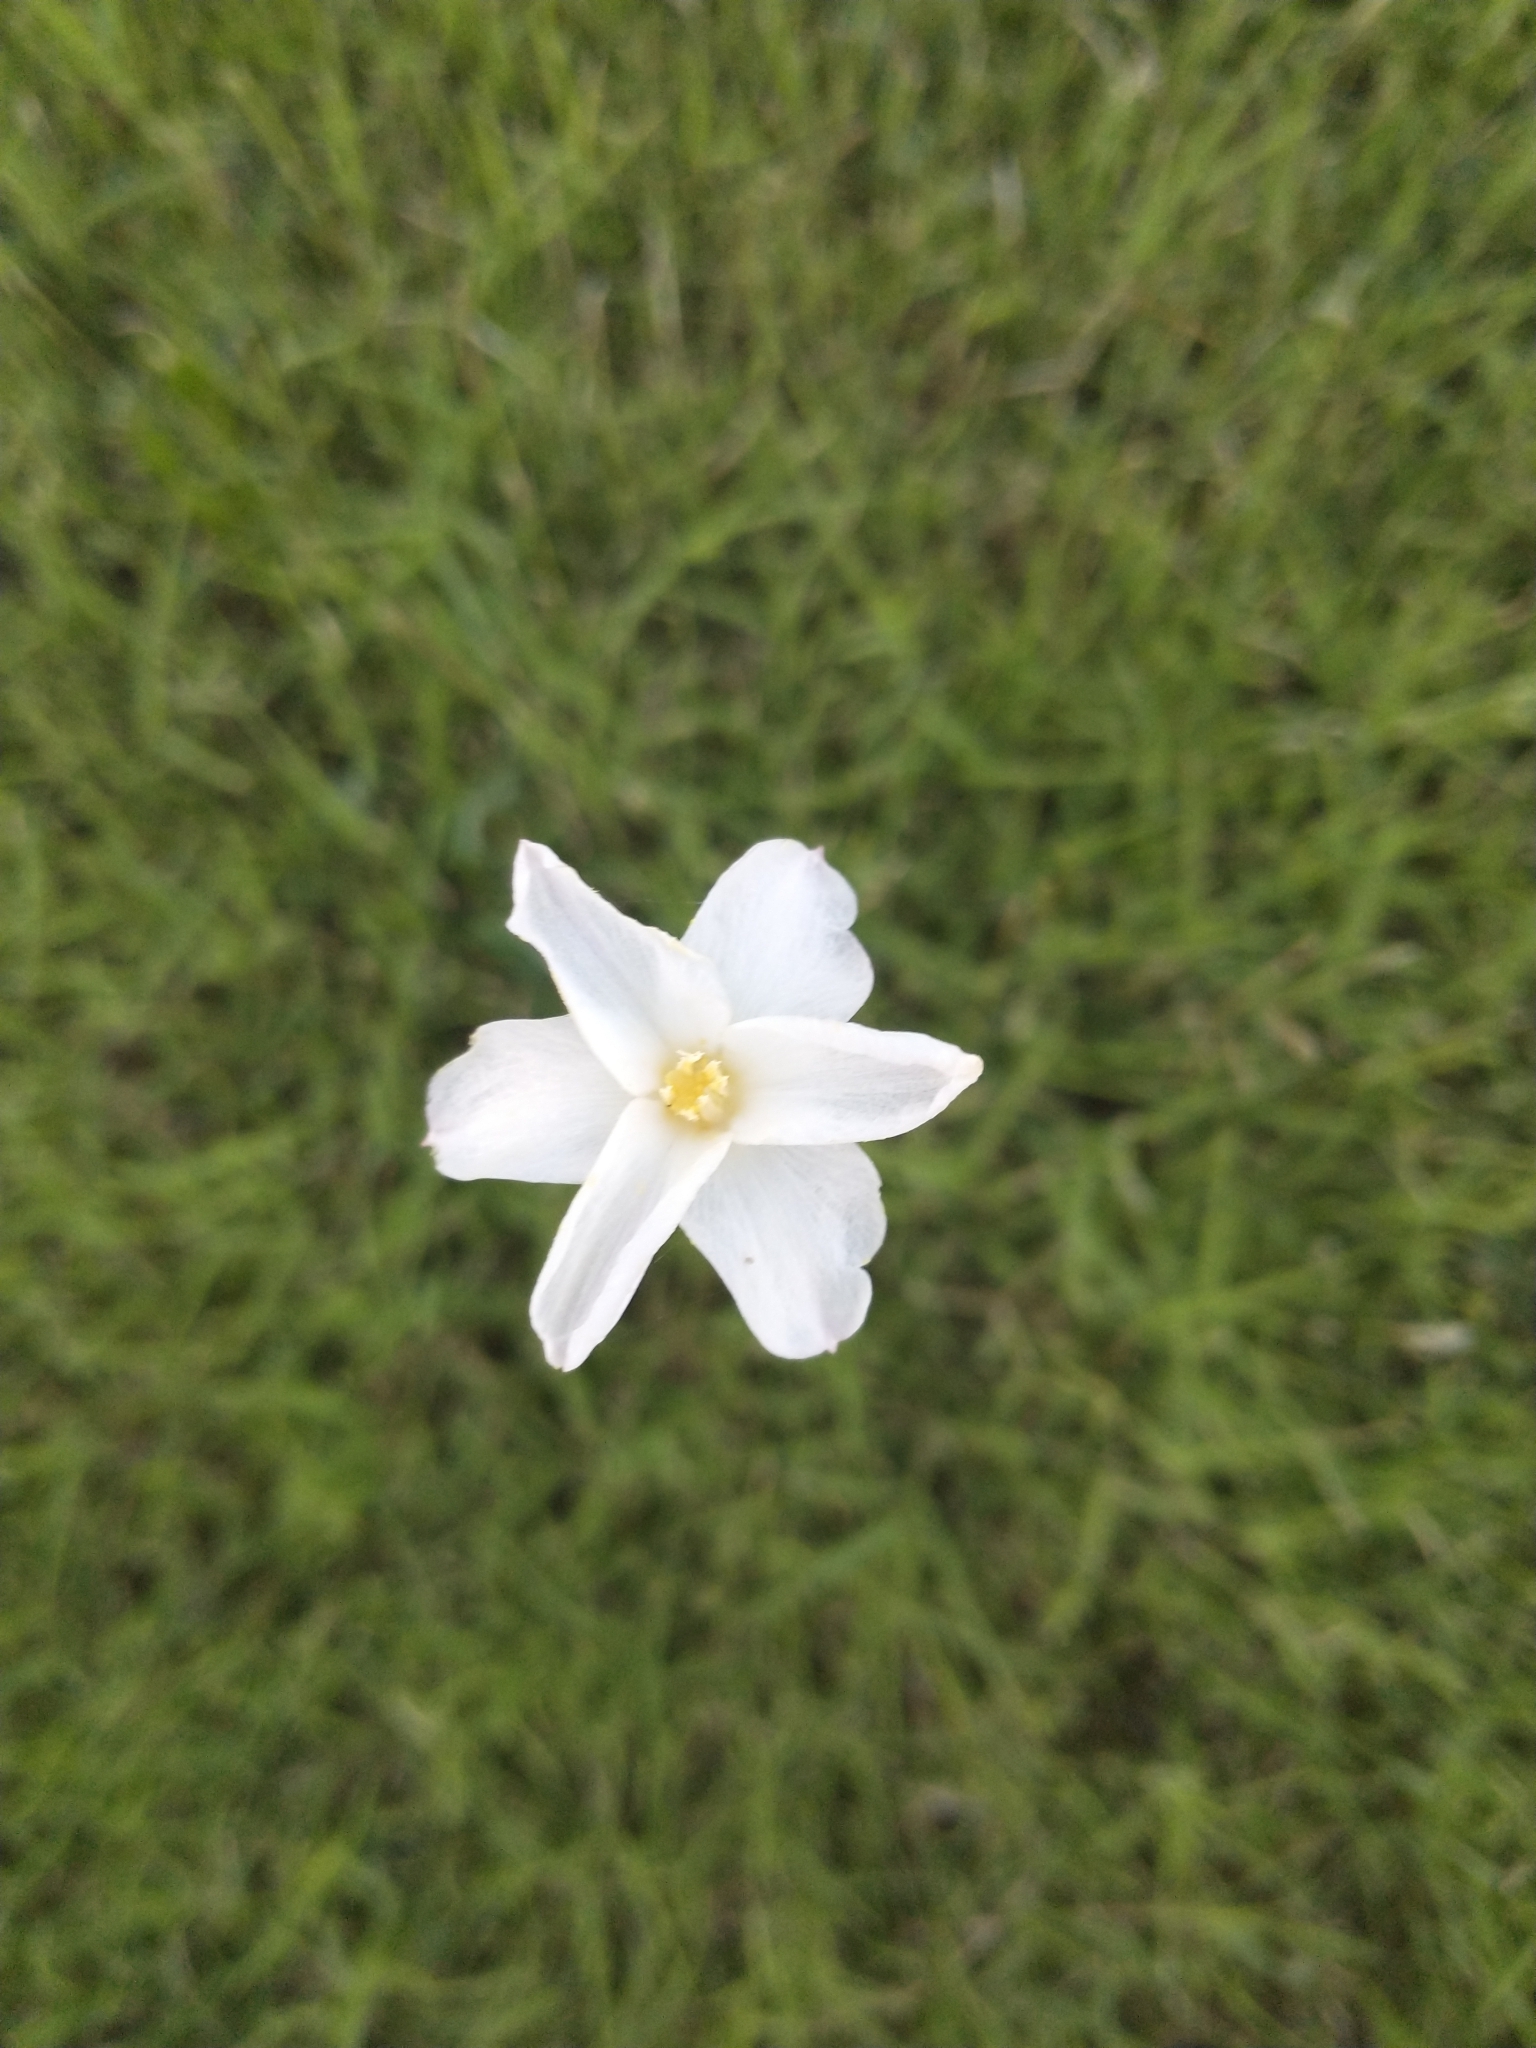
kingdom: Plantae
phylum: Tracheophyta
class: Liliopsida
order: Asparagales
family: Amaryllidaceae
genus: Zephyranthes
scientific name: Zephyranthes chlorosolen
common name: Evening rain-lily
